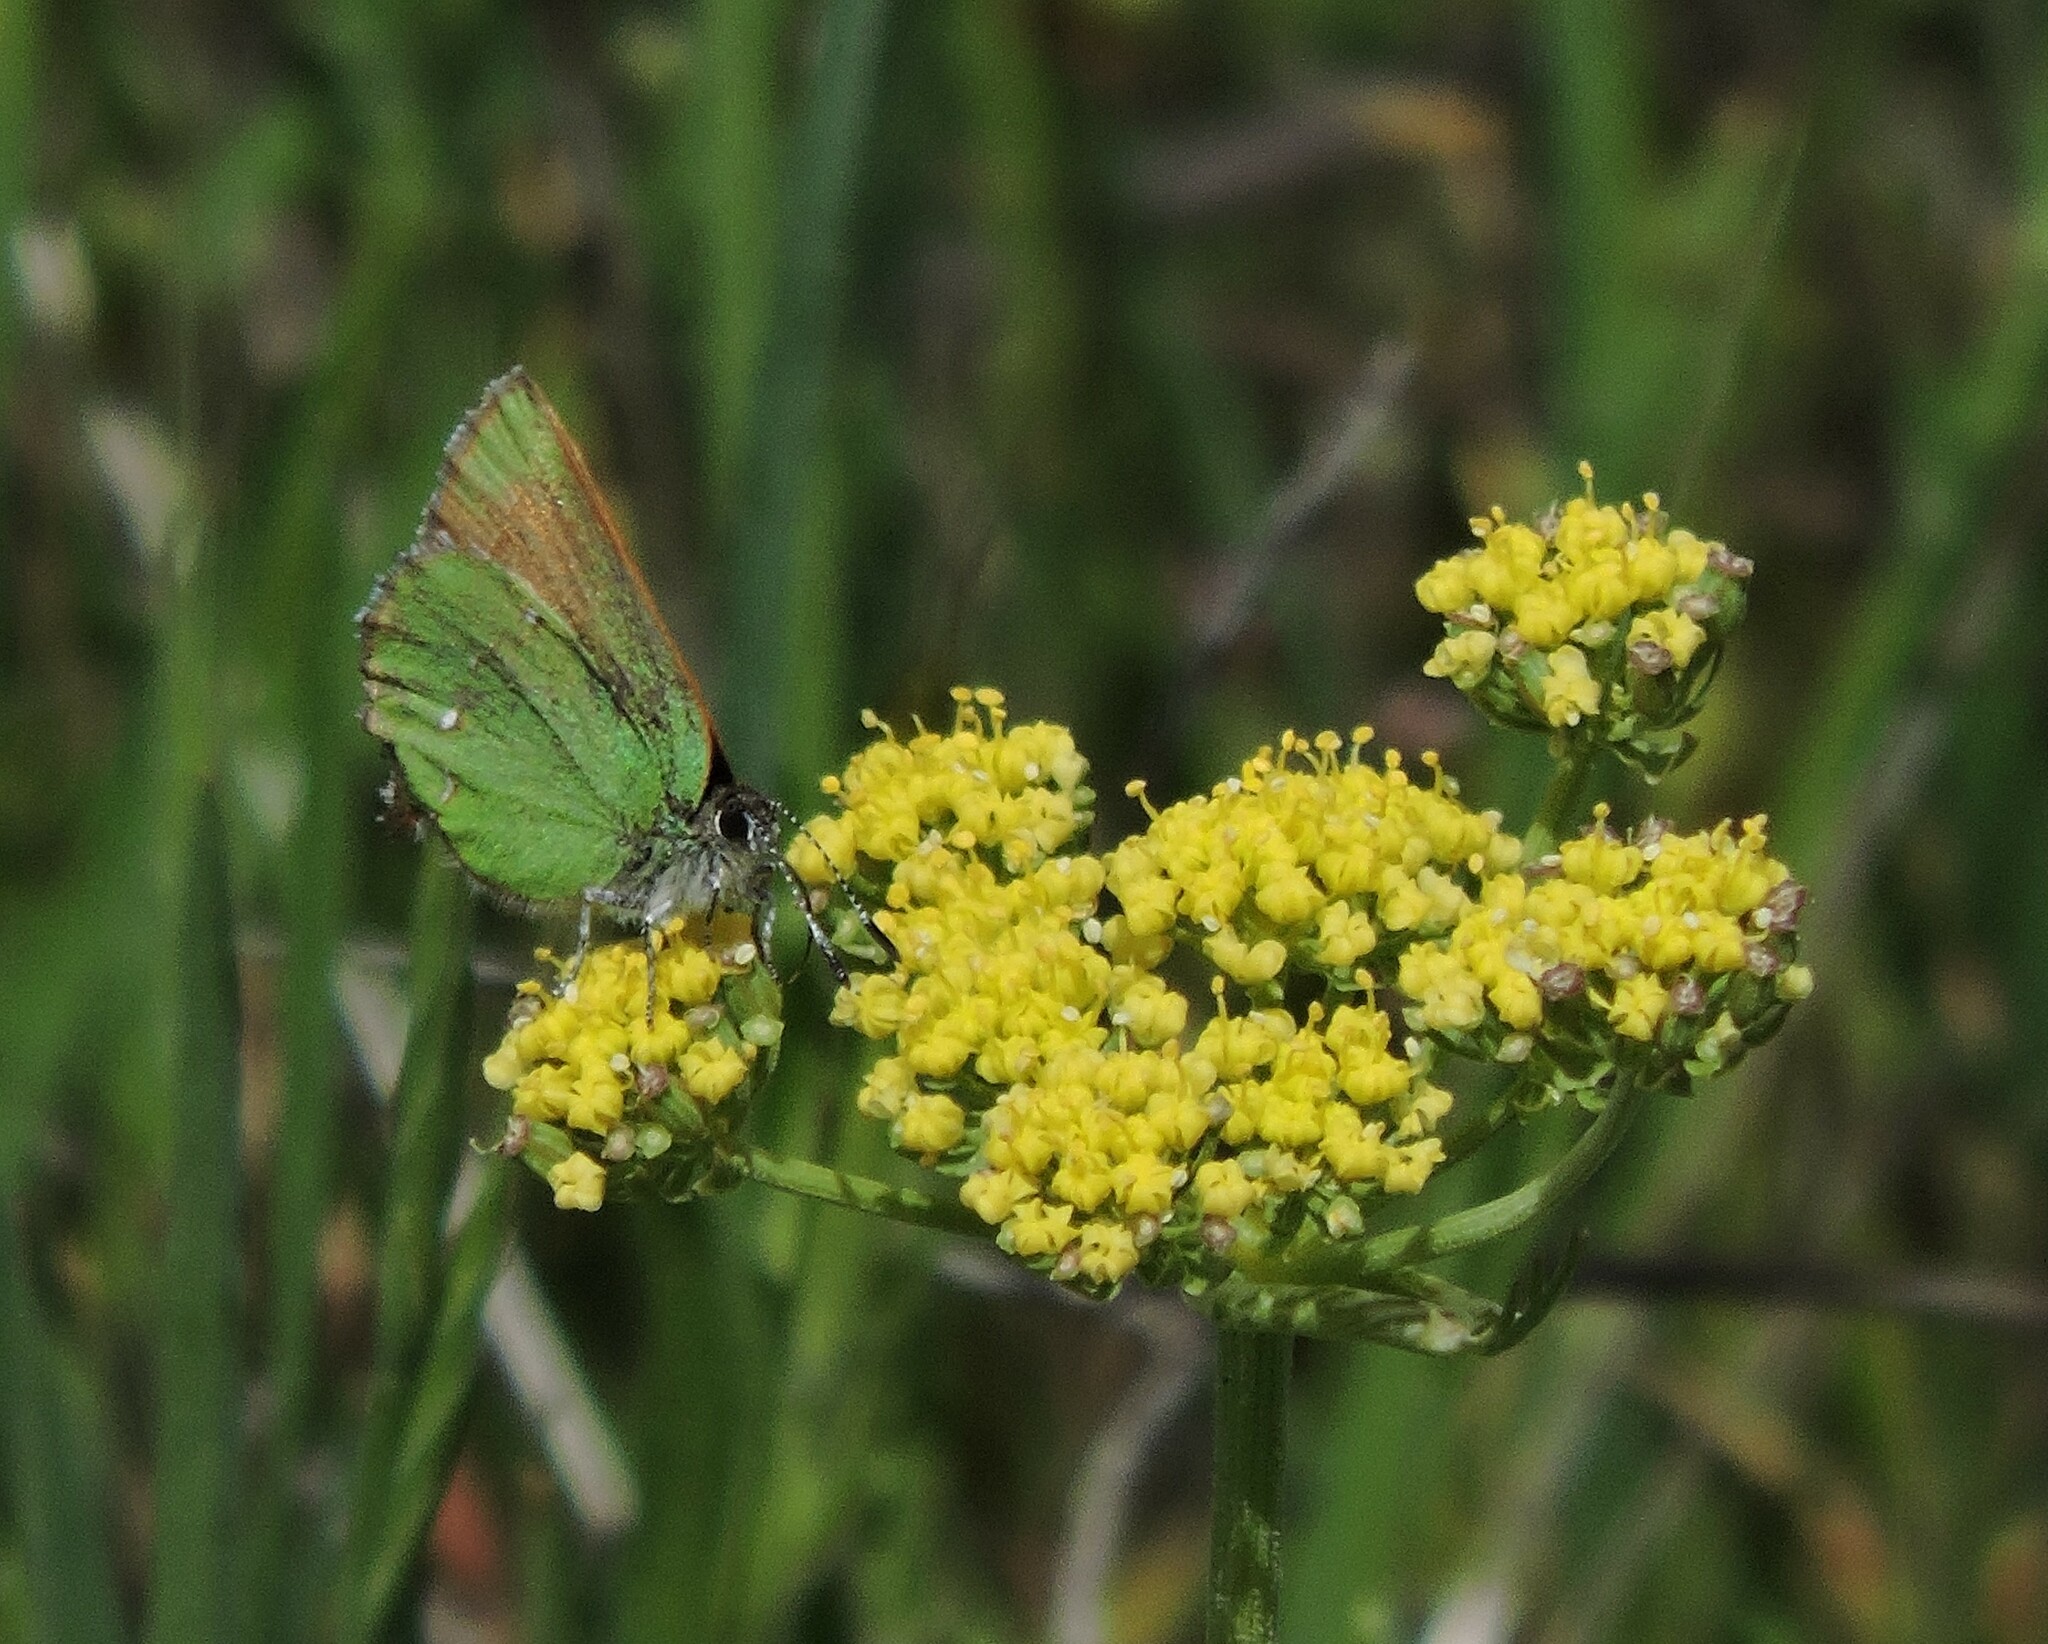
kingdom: Animalia
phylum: Arthropoda
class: Insecta
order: Lepidoptera
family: Lycaenidae
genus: Callophrys
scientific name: Callophrys dumetorum
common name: Bramble hairstreak
